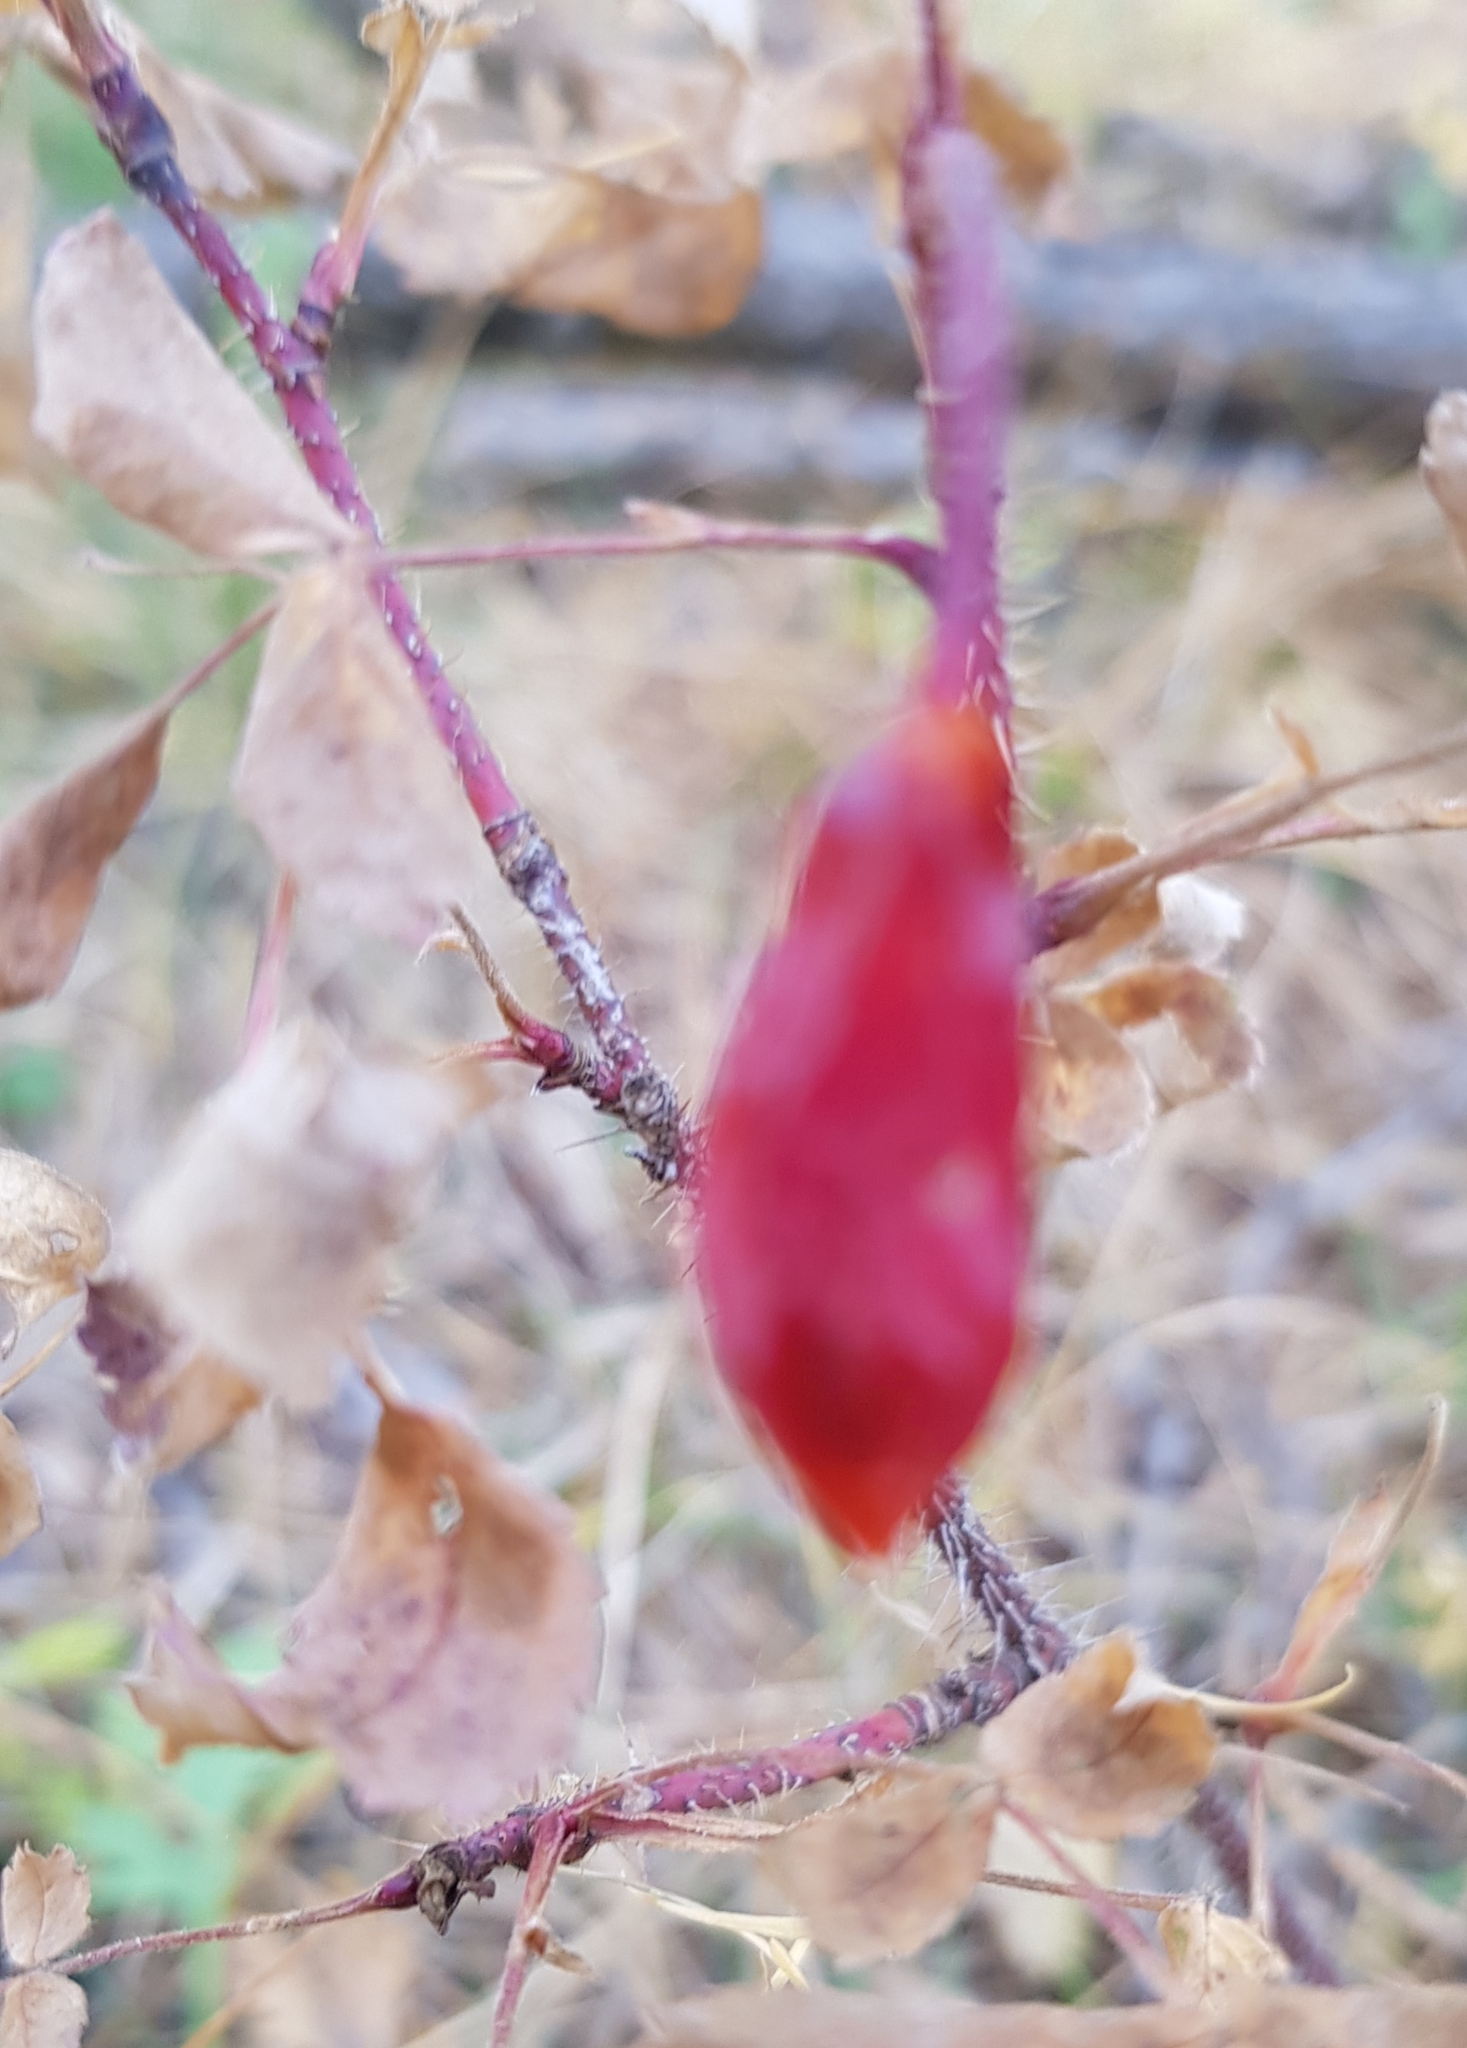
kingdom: Plantae
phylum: Tracheophyta
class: Magnoliopsida
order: Rosales
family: Rosaceae
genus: Rosa
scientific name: Rosa acicularis
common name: Prickly rose
